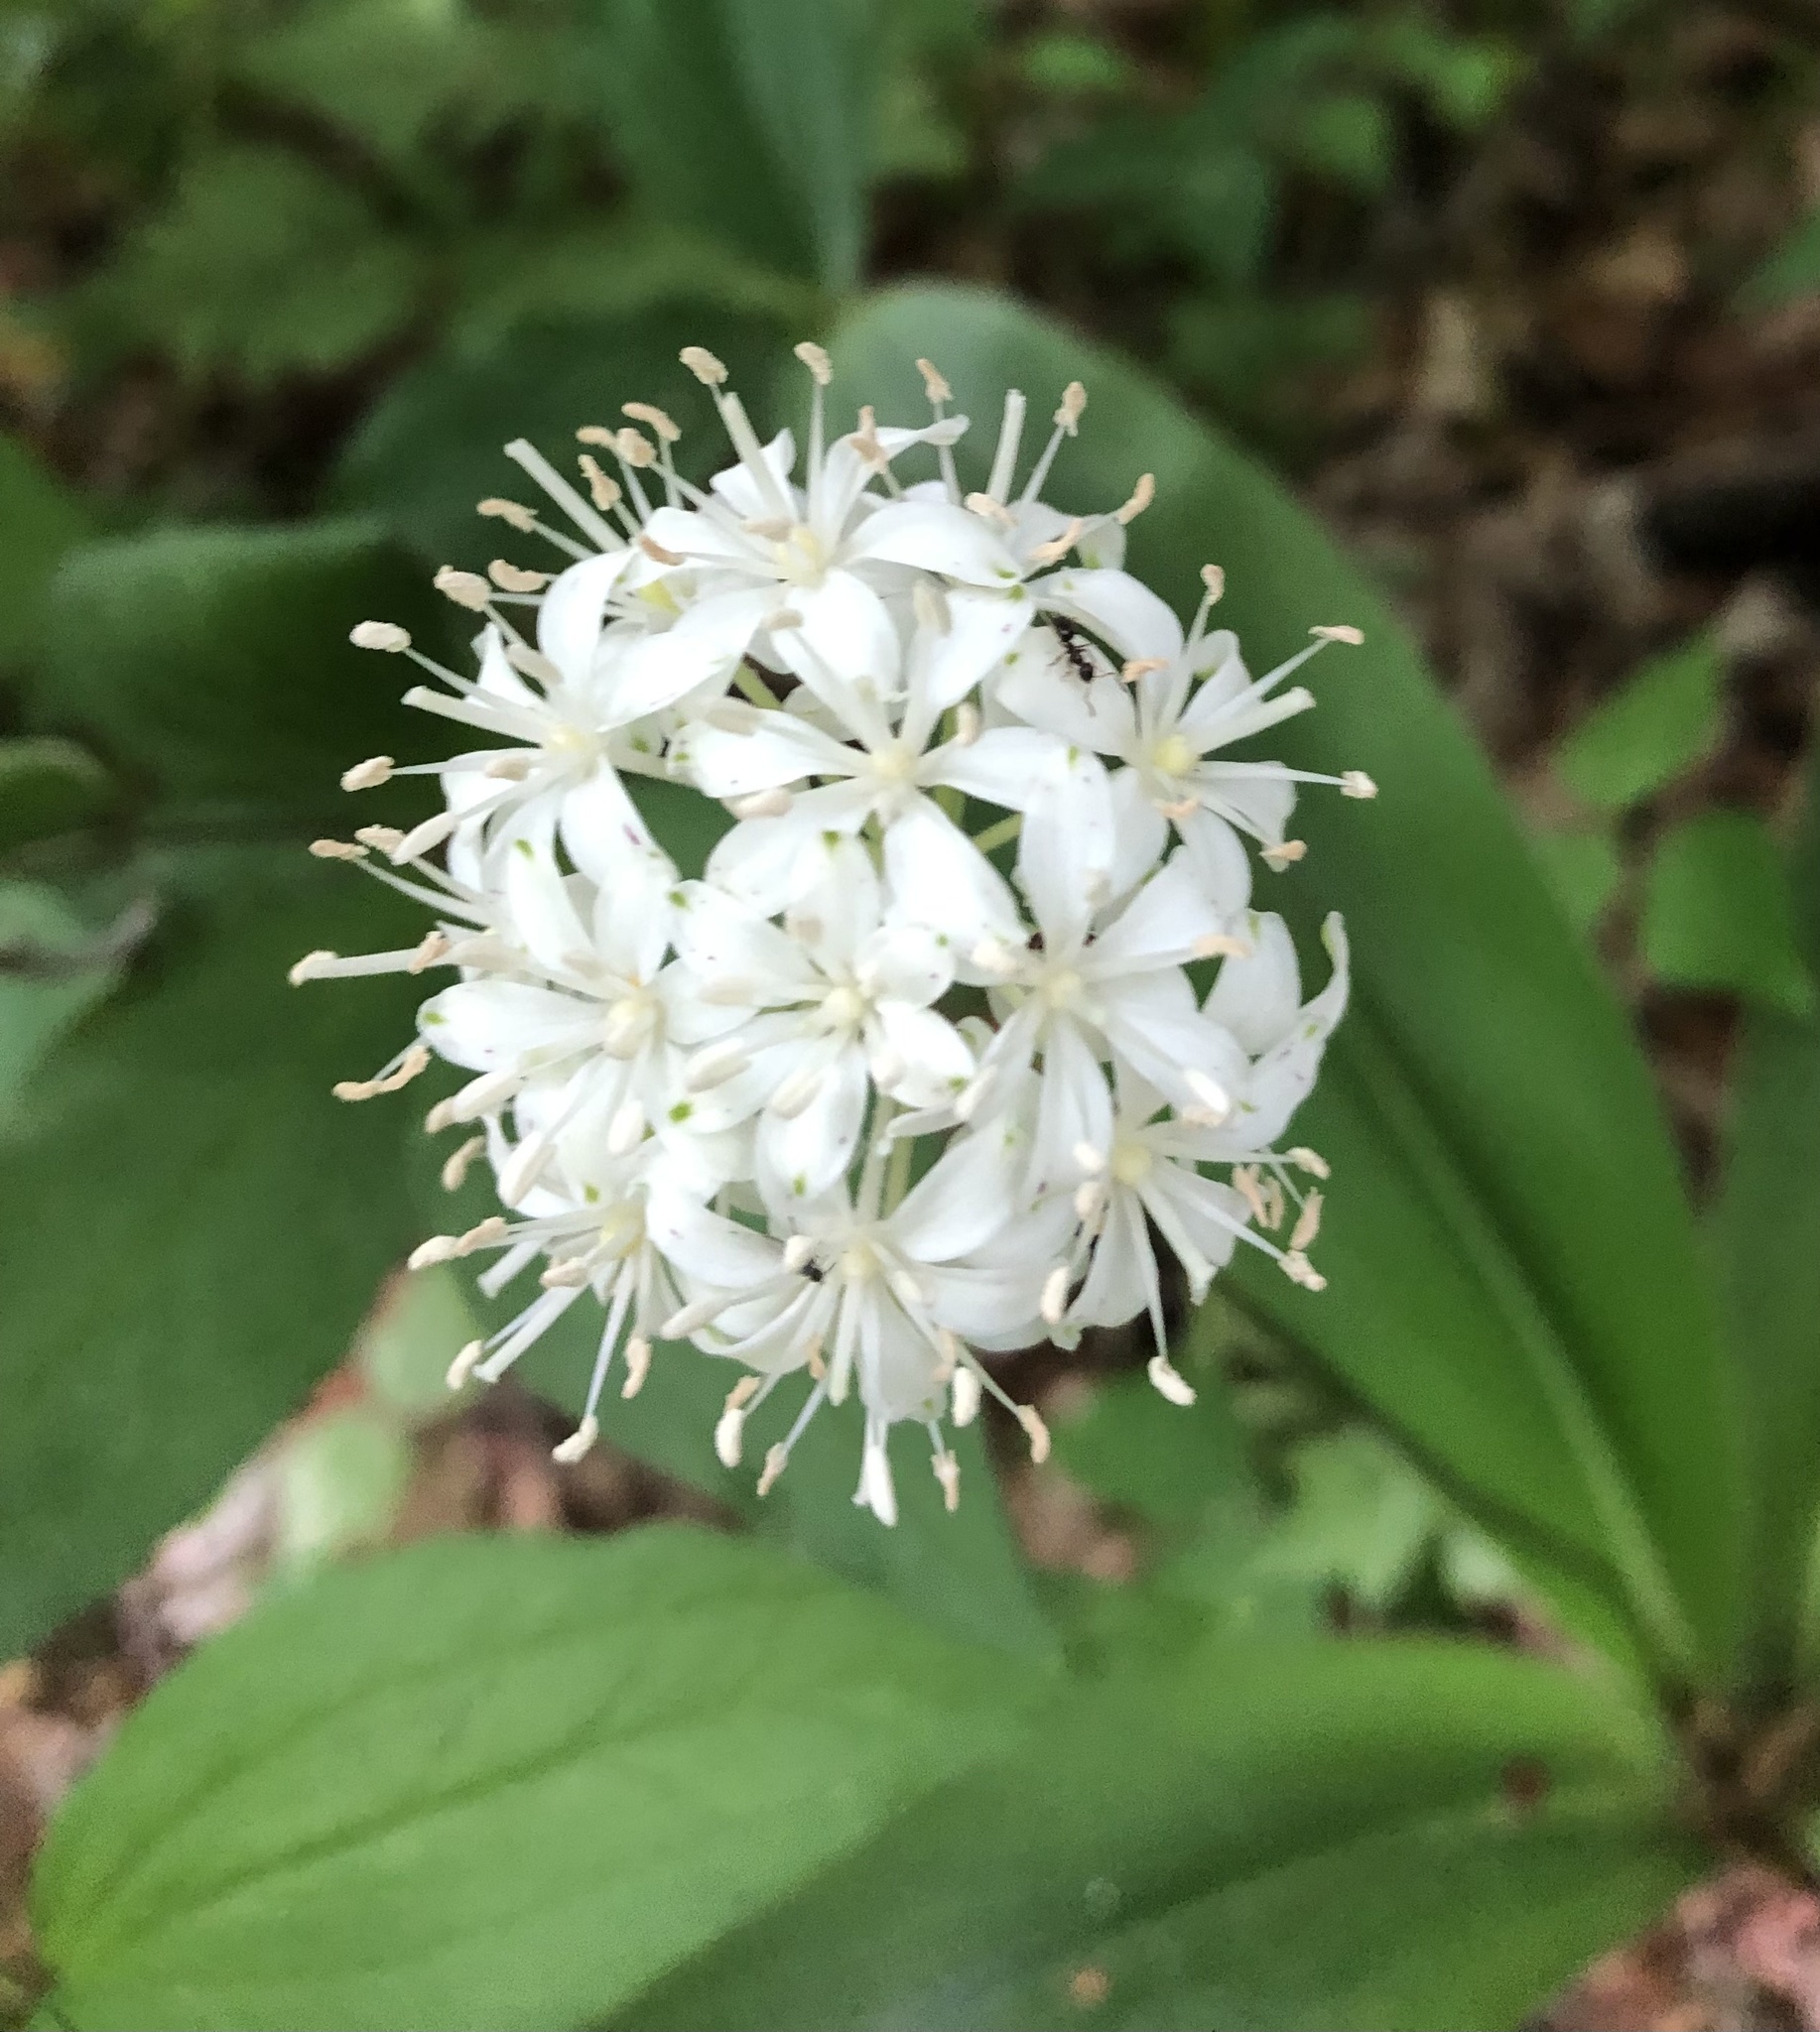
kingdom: Plantae
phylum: Tracheophyta
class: Liliopsida
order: Liliales
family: Liliaceae
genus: Clintonia
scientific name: Clintonia umbellulata
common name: Speckle wood-lily
